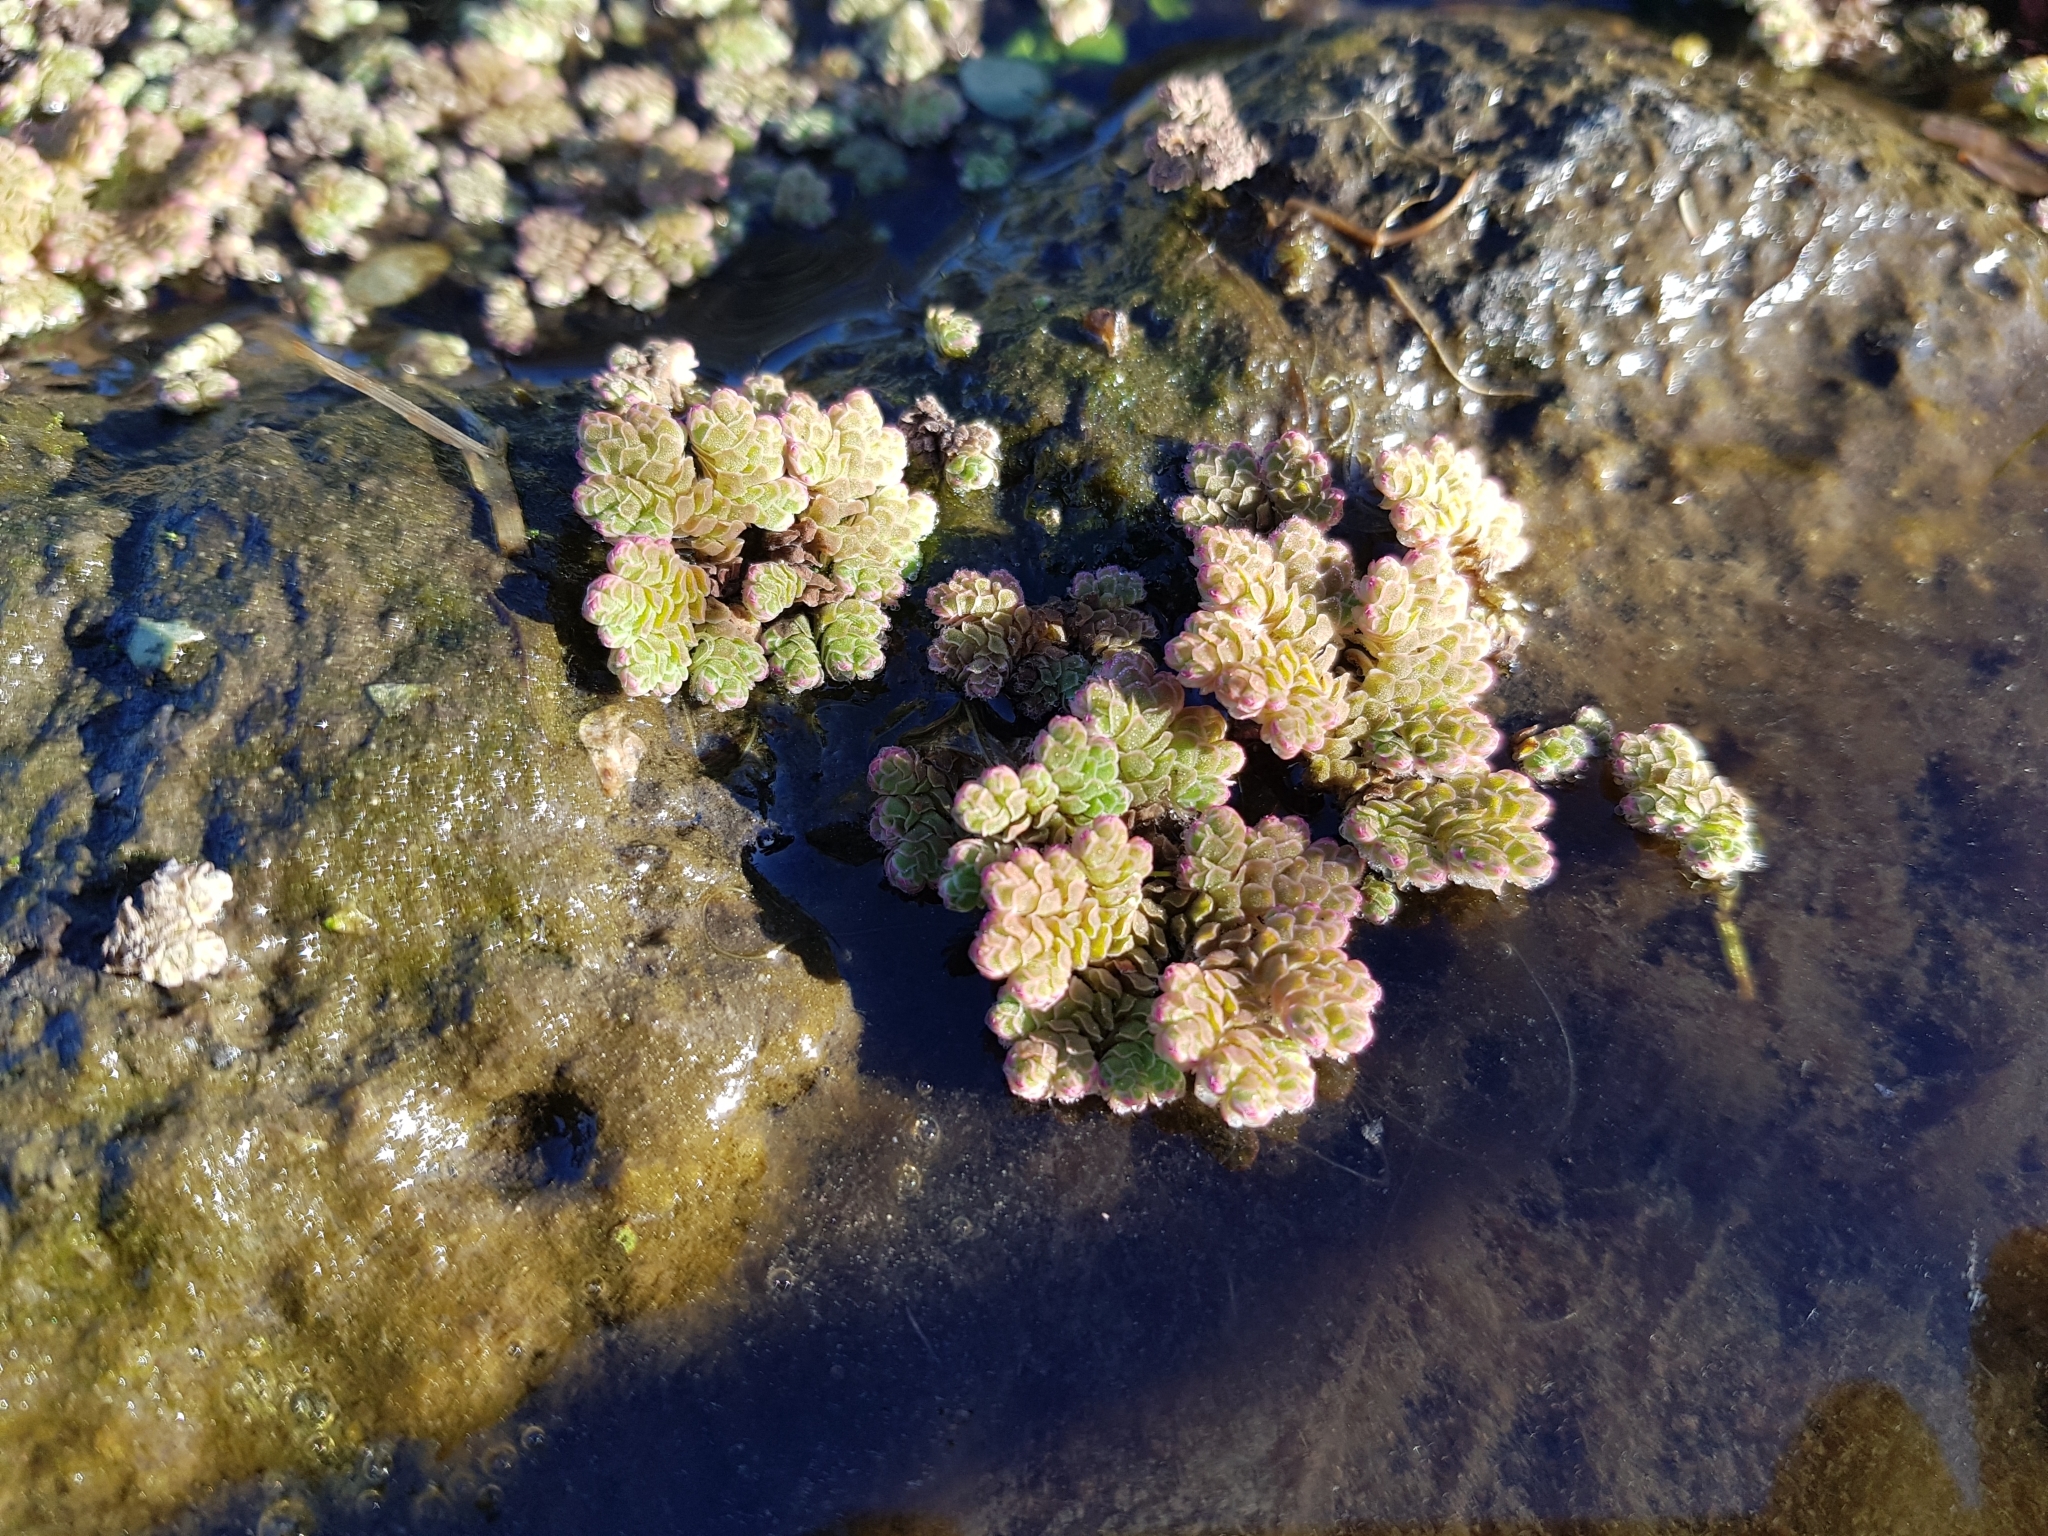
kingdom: Plantae
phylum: Tracheophyta
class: Polypodiopsida
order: Salviniales
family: Salviniaceae
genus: Azolla
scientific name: Azolla rubra
